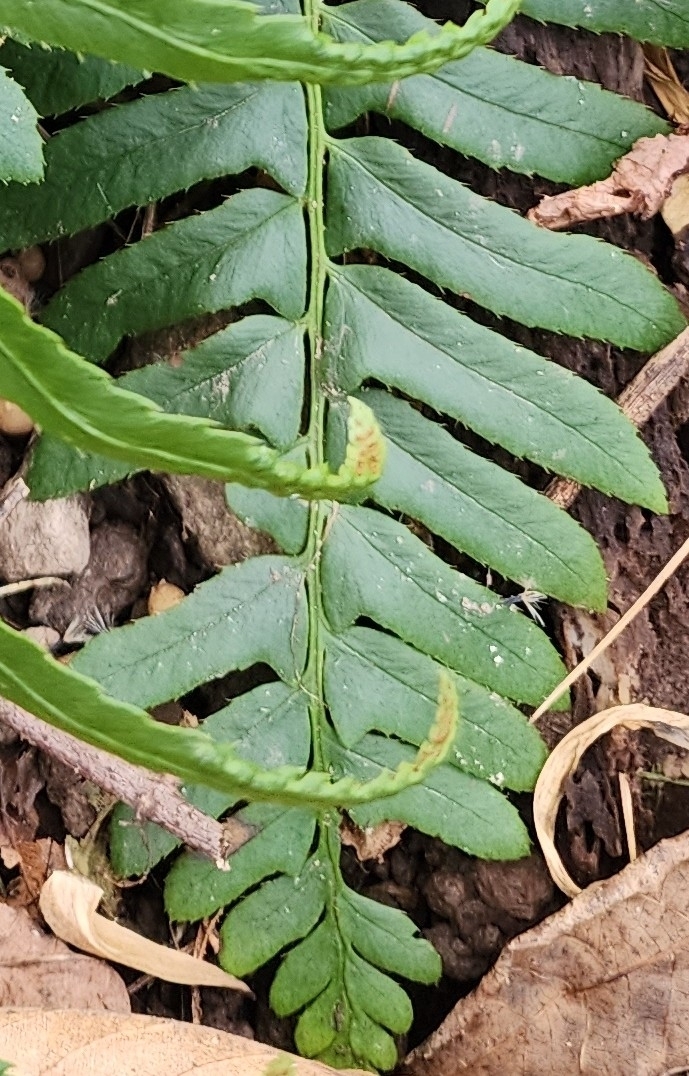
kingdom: Plantae
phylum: Tracheophyta
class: Polypodiopsida
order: Polypodiales
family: Dryopteridaceae
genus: Polystichum
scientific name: Polystichum acrostichoides
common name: Christmas fern
